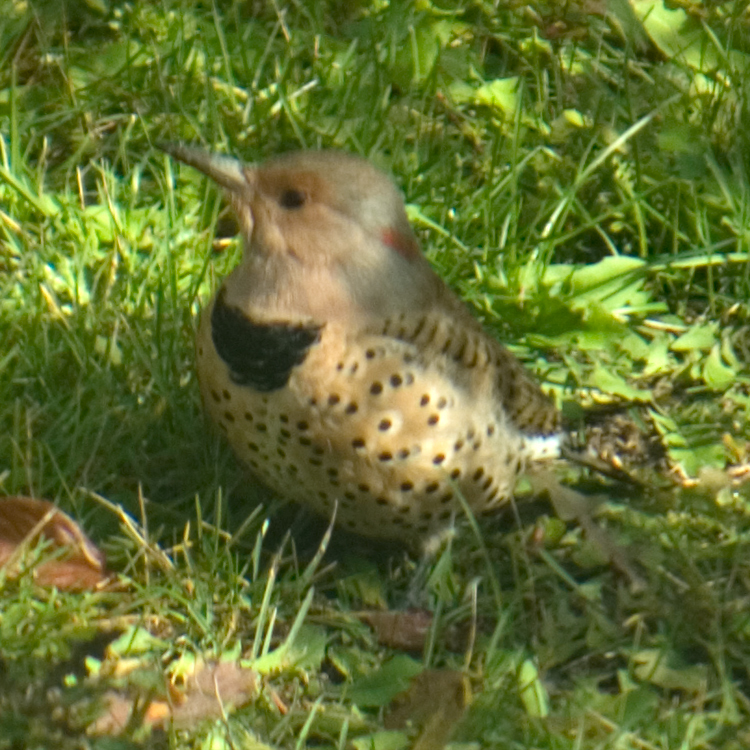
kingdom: Animalia
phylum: Chordata
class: Aves
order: Piciformes
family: Picidae
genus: Colaptes
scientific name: Colaptes auratus
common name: Northern flicker
